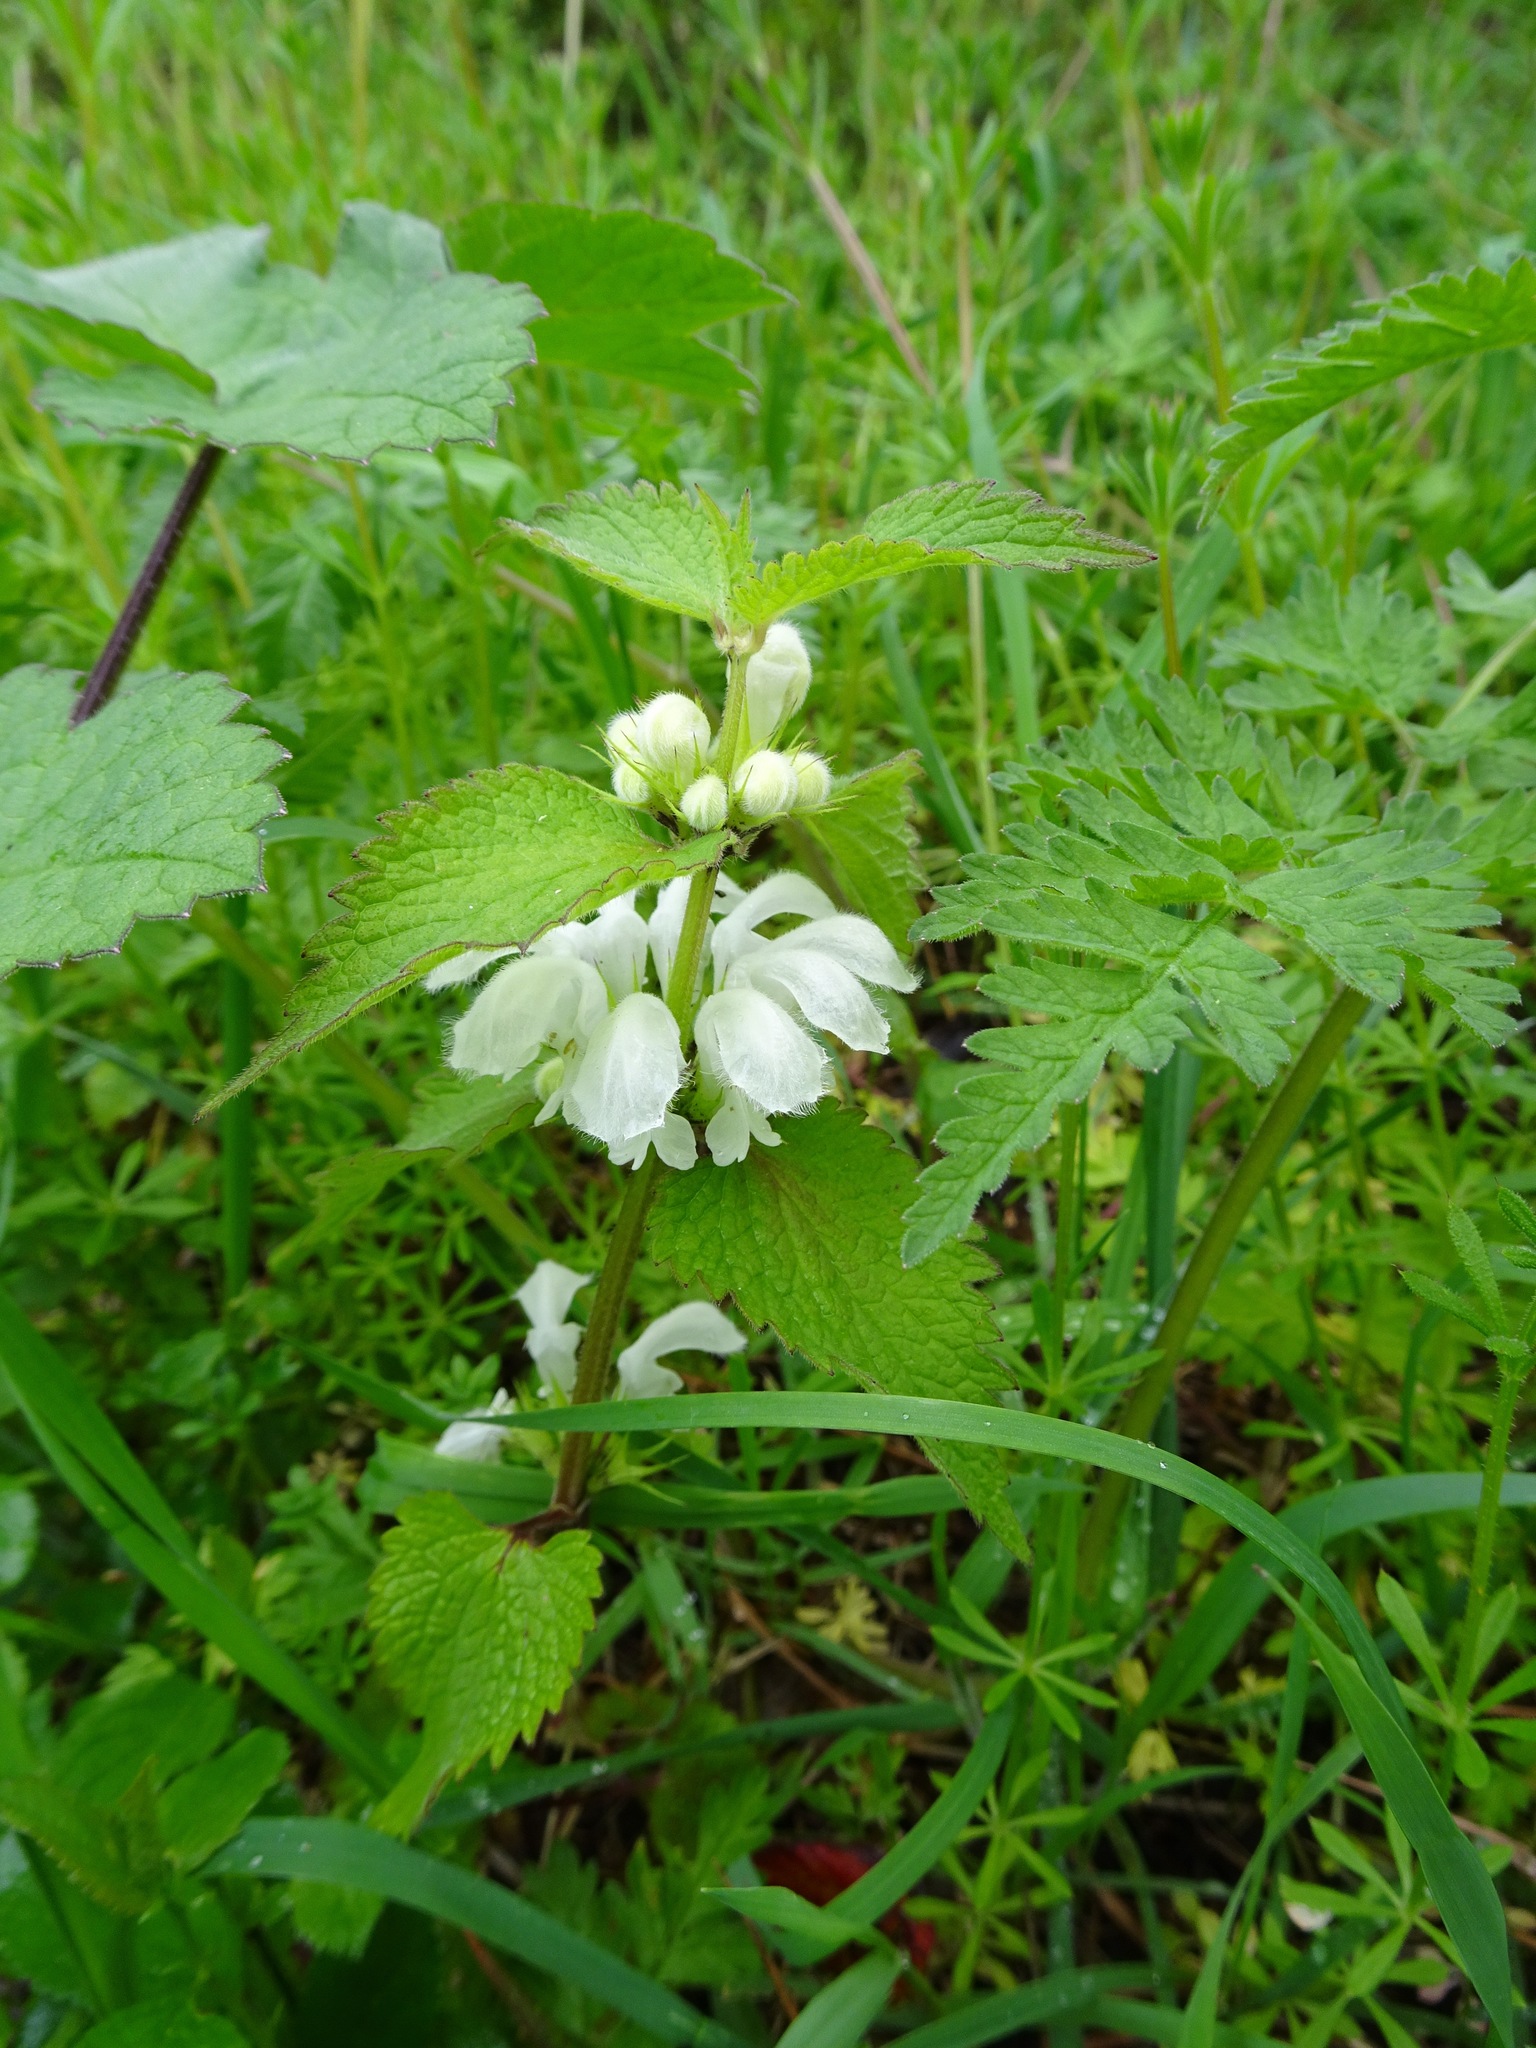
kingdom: Plantae
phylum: Tracheophyta
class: Magnoliopsida
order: Lamiales
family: Lamiaceae
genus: Lamium
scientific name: Lamium album
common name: White dead-nettle
